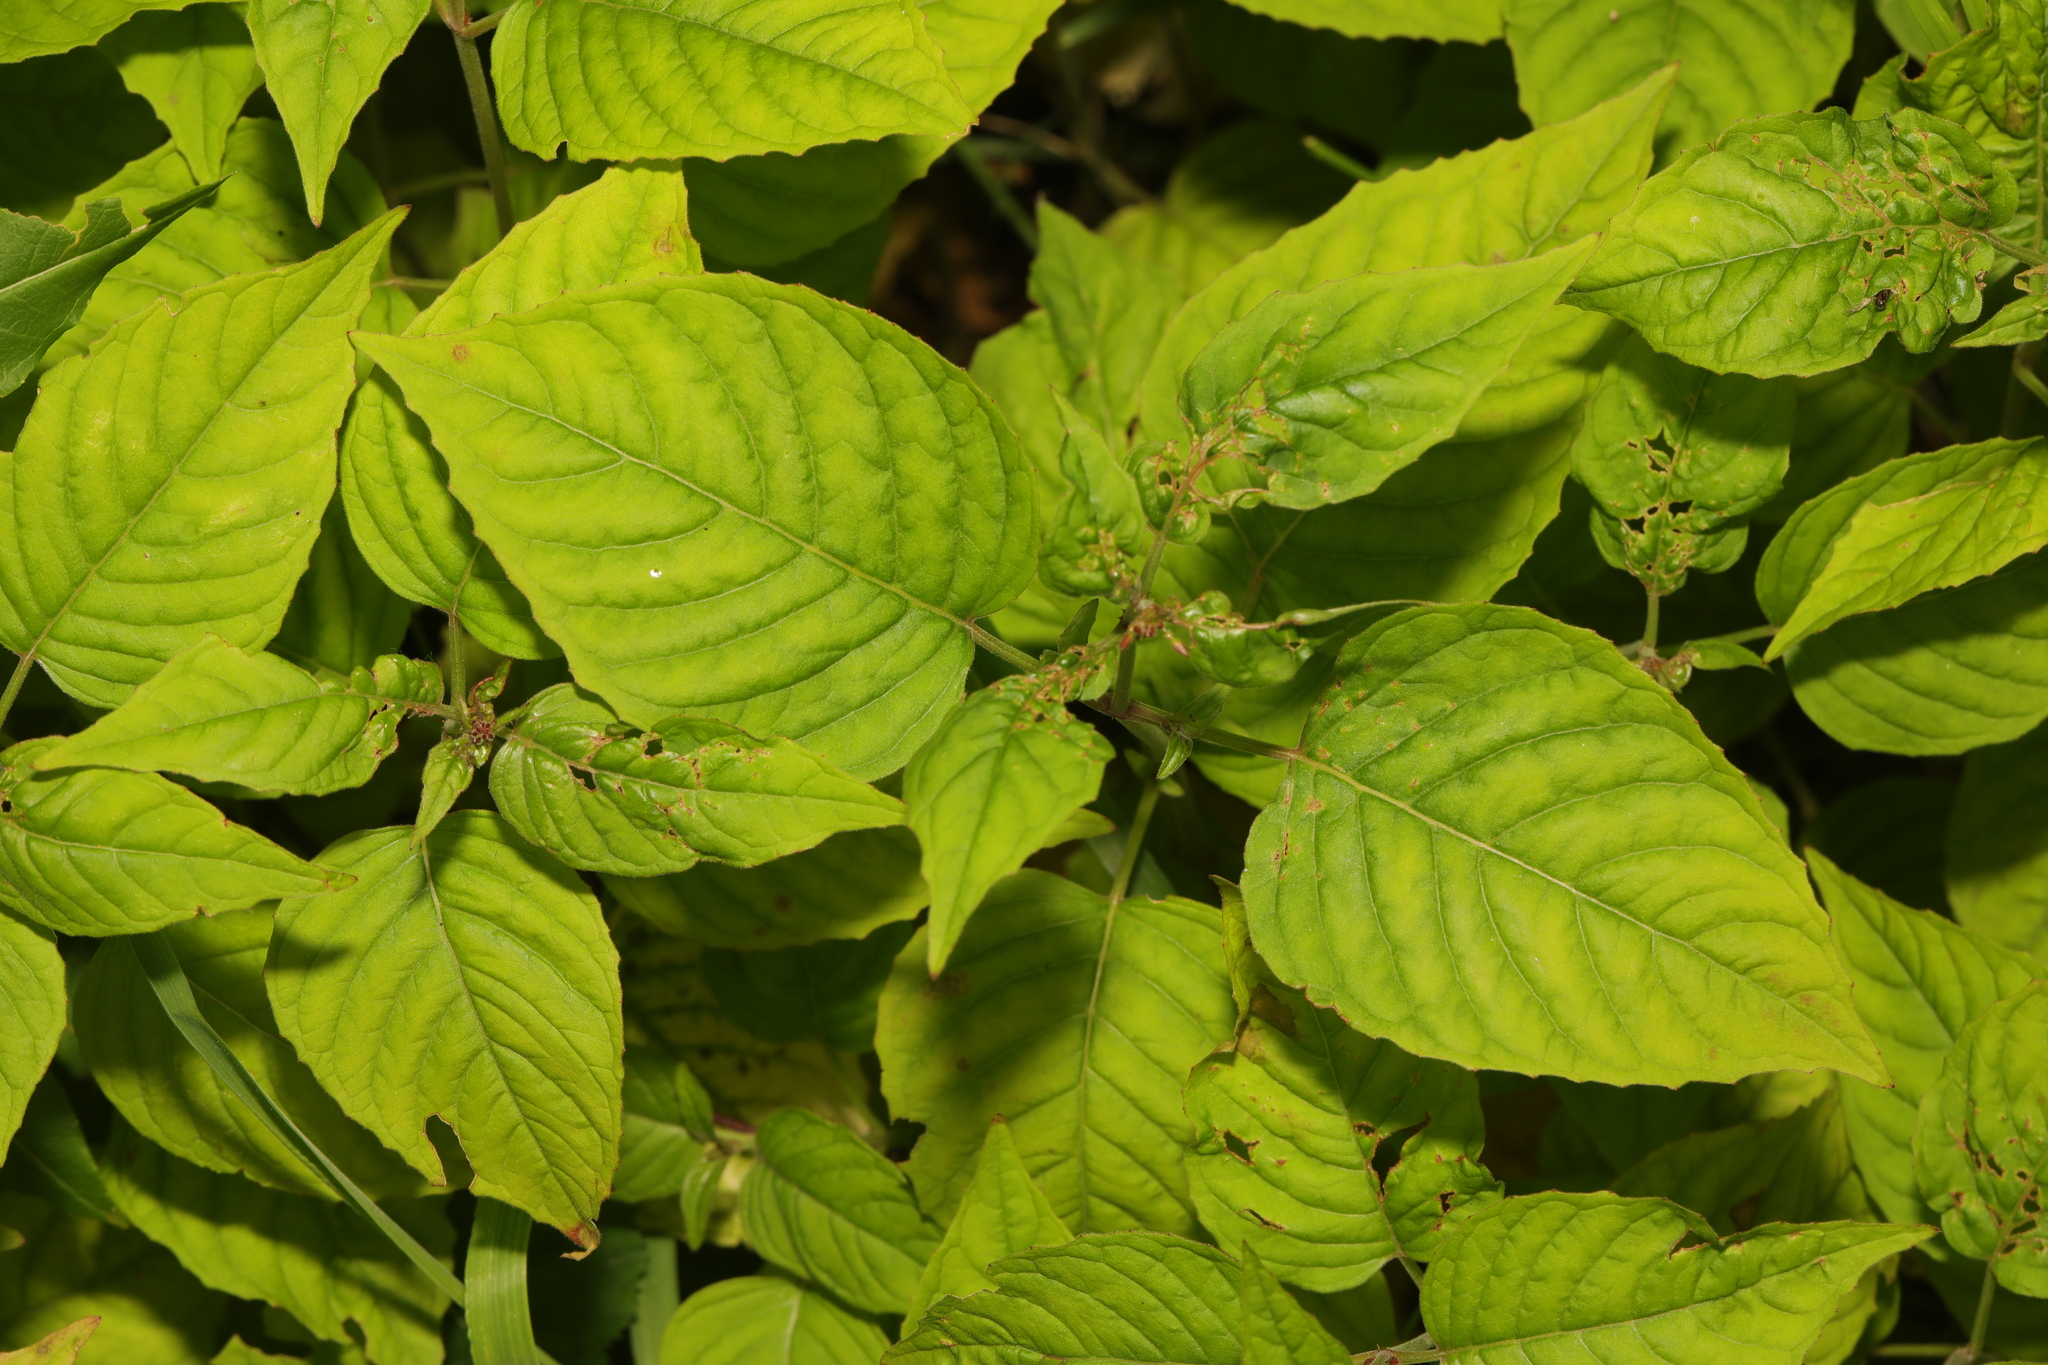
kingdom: Plantae
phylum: Tracheophyta
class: Magnoliopsida
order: Myrtales
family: Onagraceae
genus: Circaea
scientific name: Circaea lutetiana
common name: Enchanter's-nightshade
